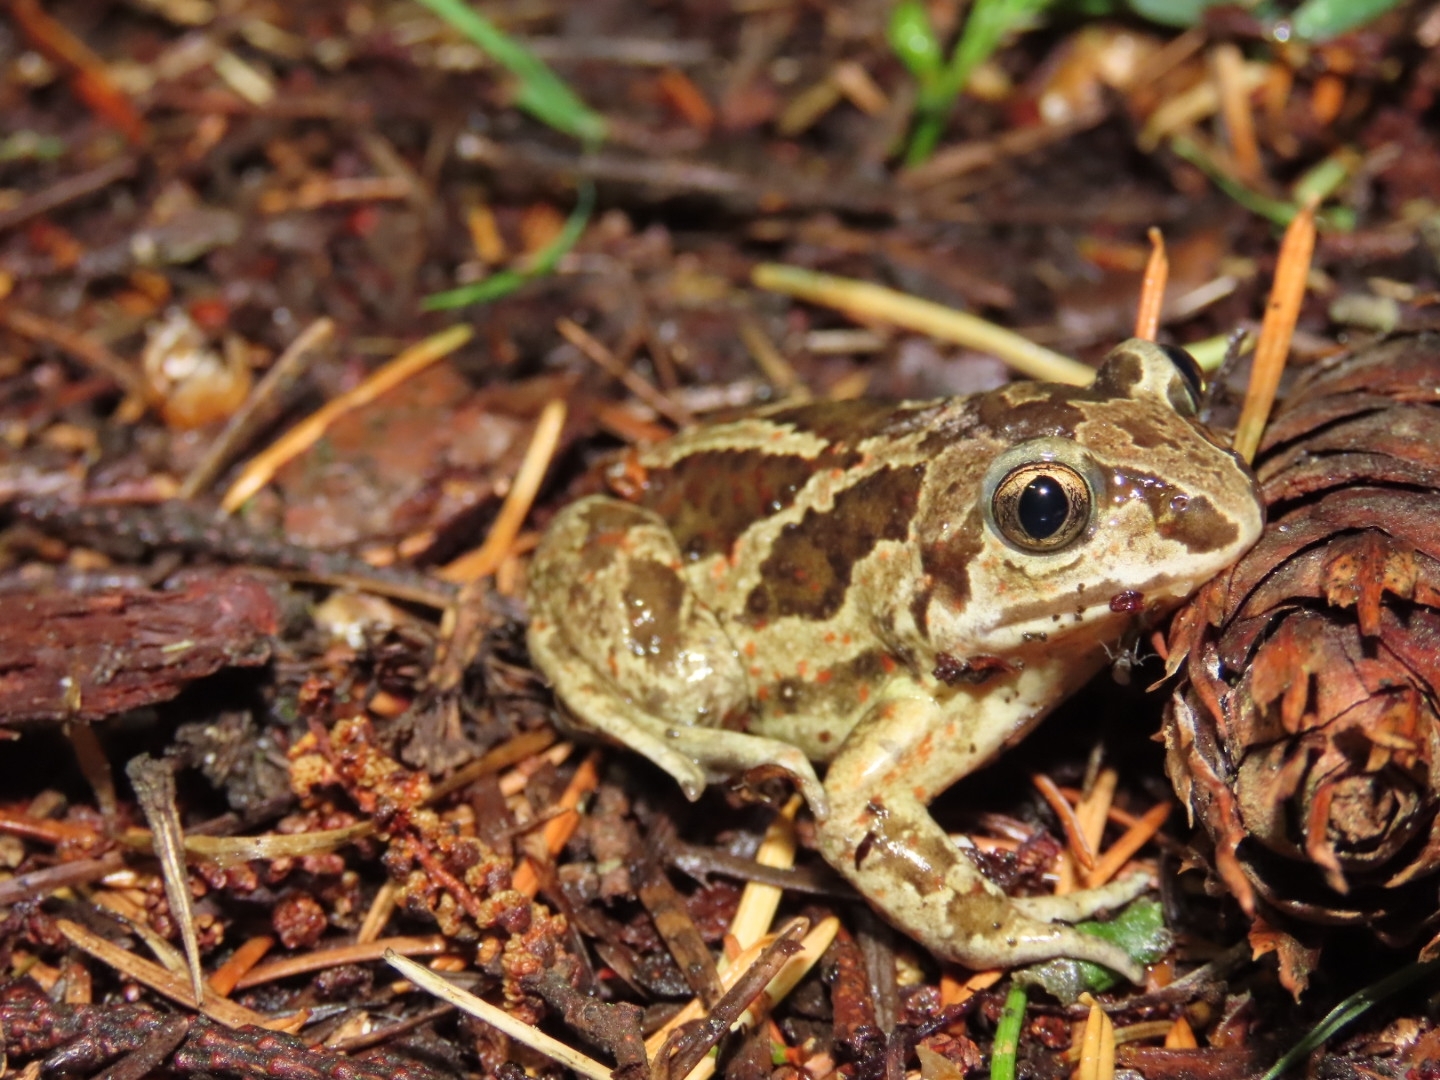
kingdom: Animalia
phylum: Chordata
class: Amphibia
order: Anura
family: Pelobatidae
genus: Pelobates
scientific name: Pelobates fuscus
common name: Common eurasian spadefoot toad
